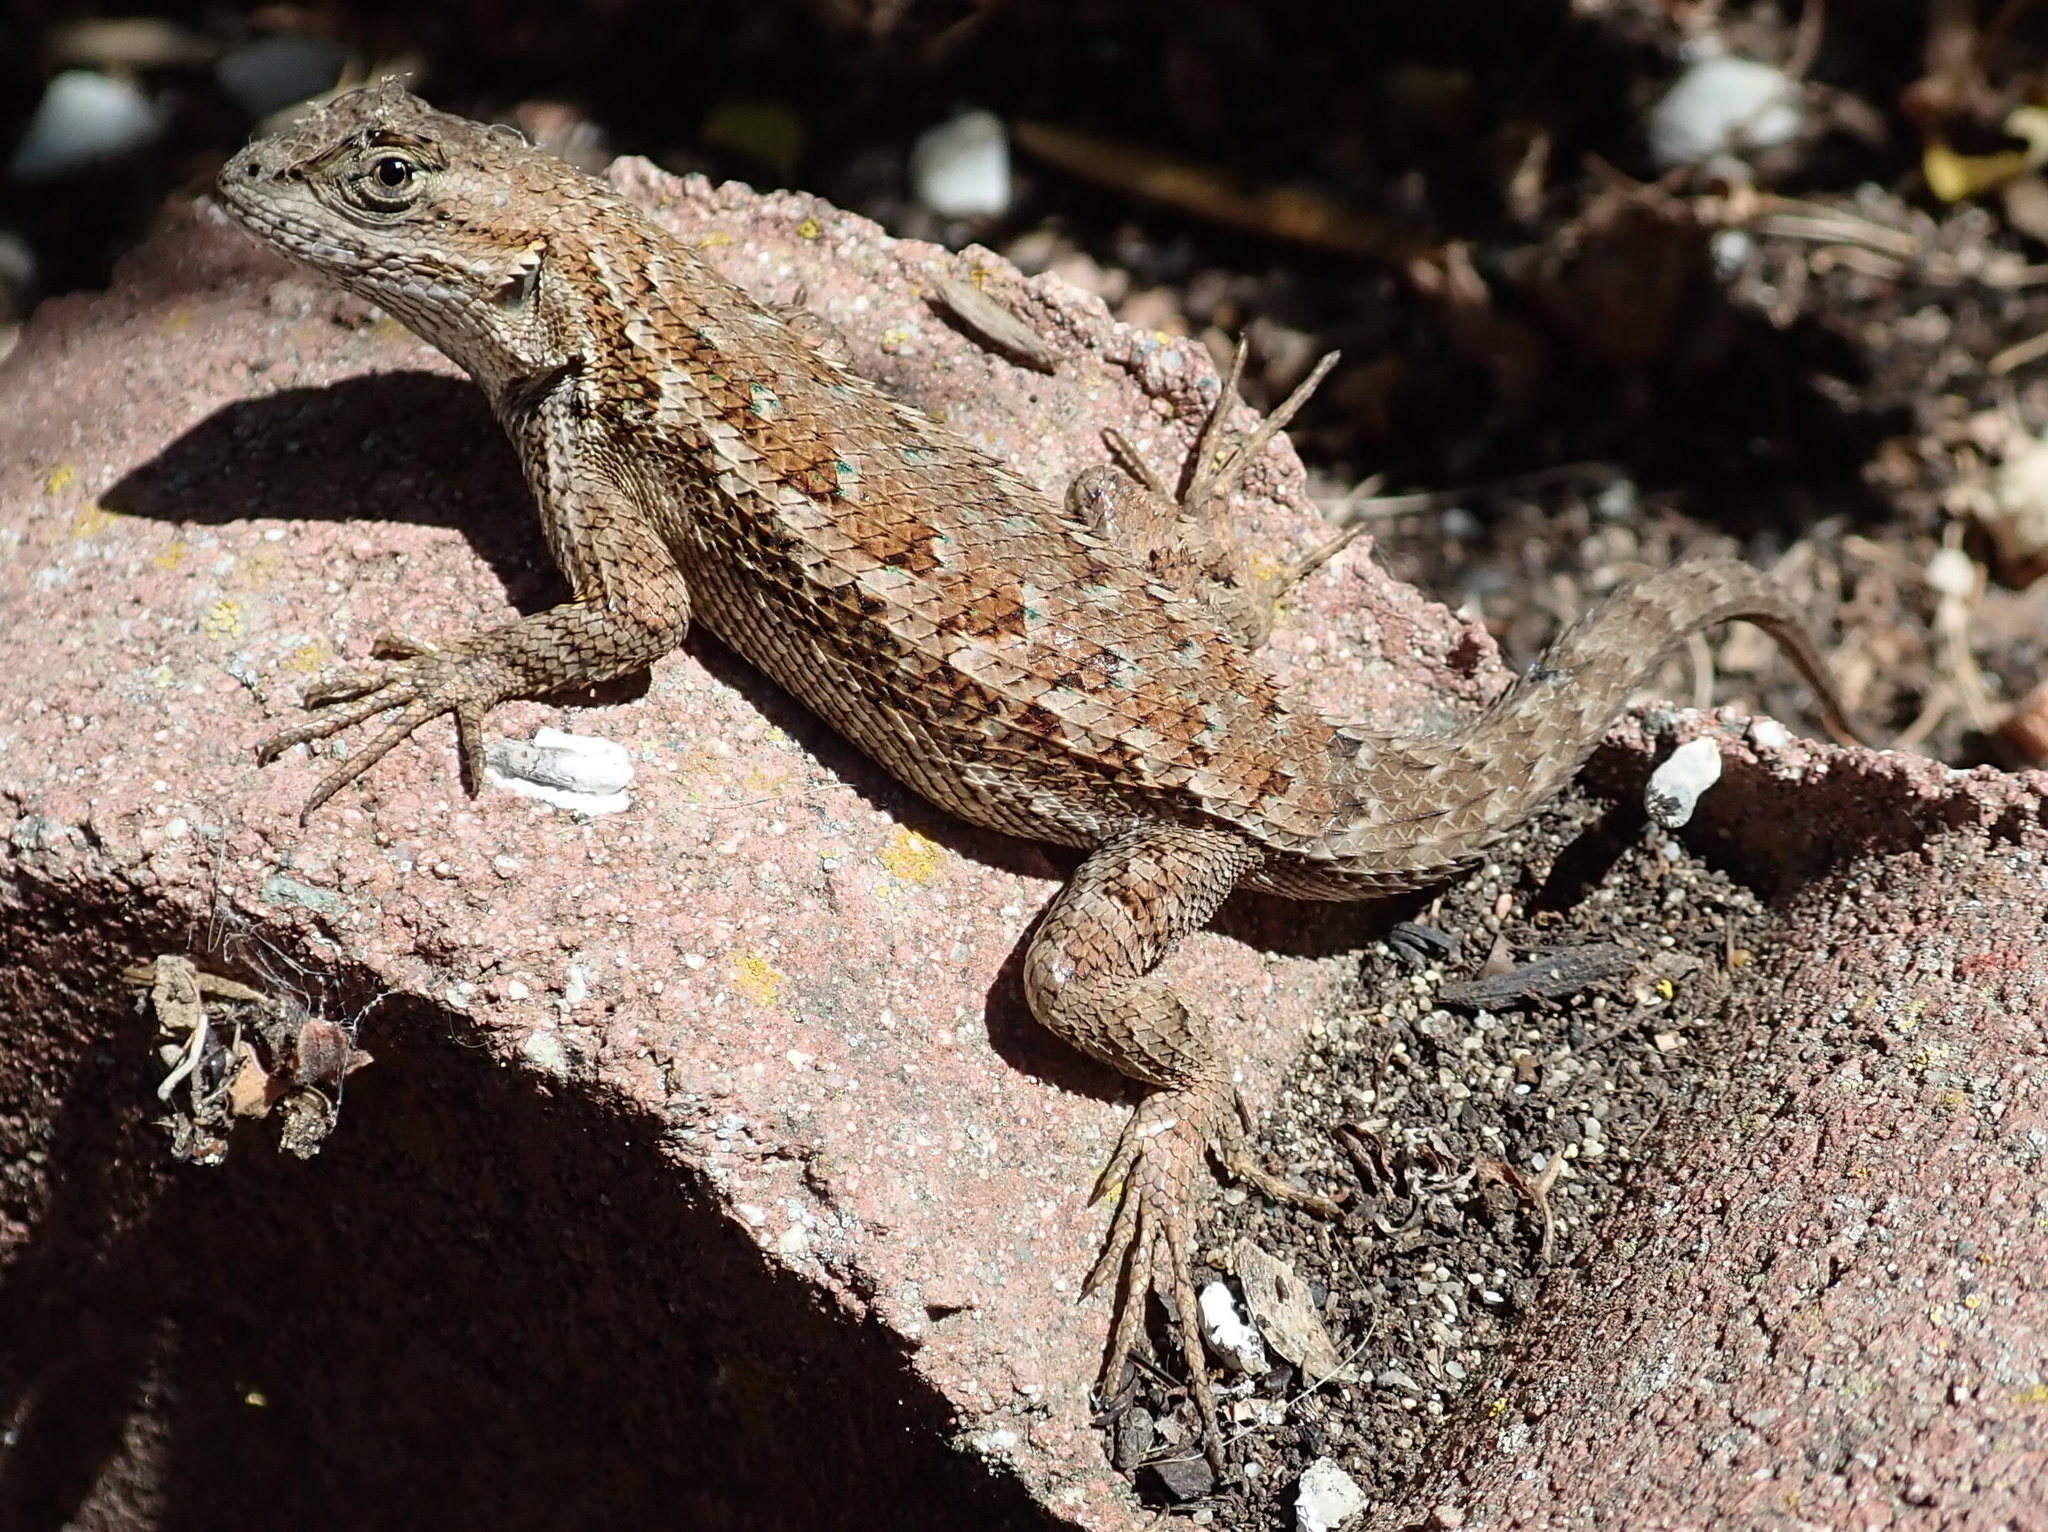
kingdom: Animalia
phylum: Chordata
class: Squamata
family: Phrynosomatidae
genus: Sceloporus
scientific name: Sceloporus occidentalis
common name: Western fence lizard
